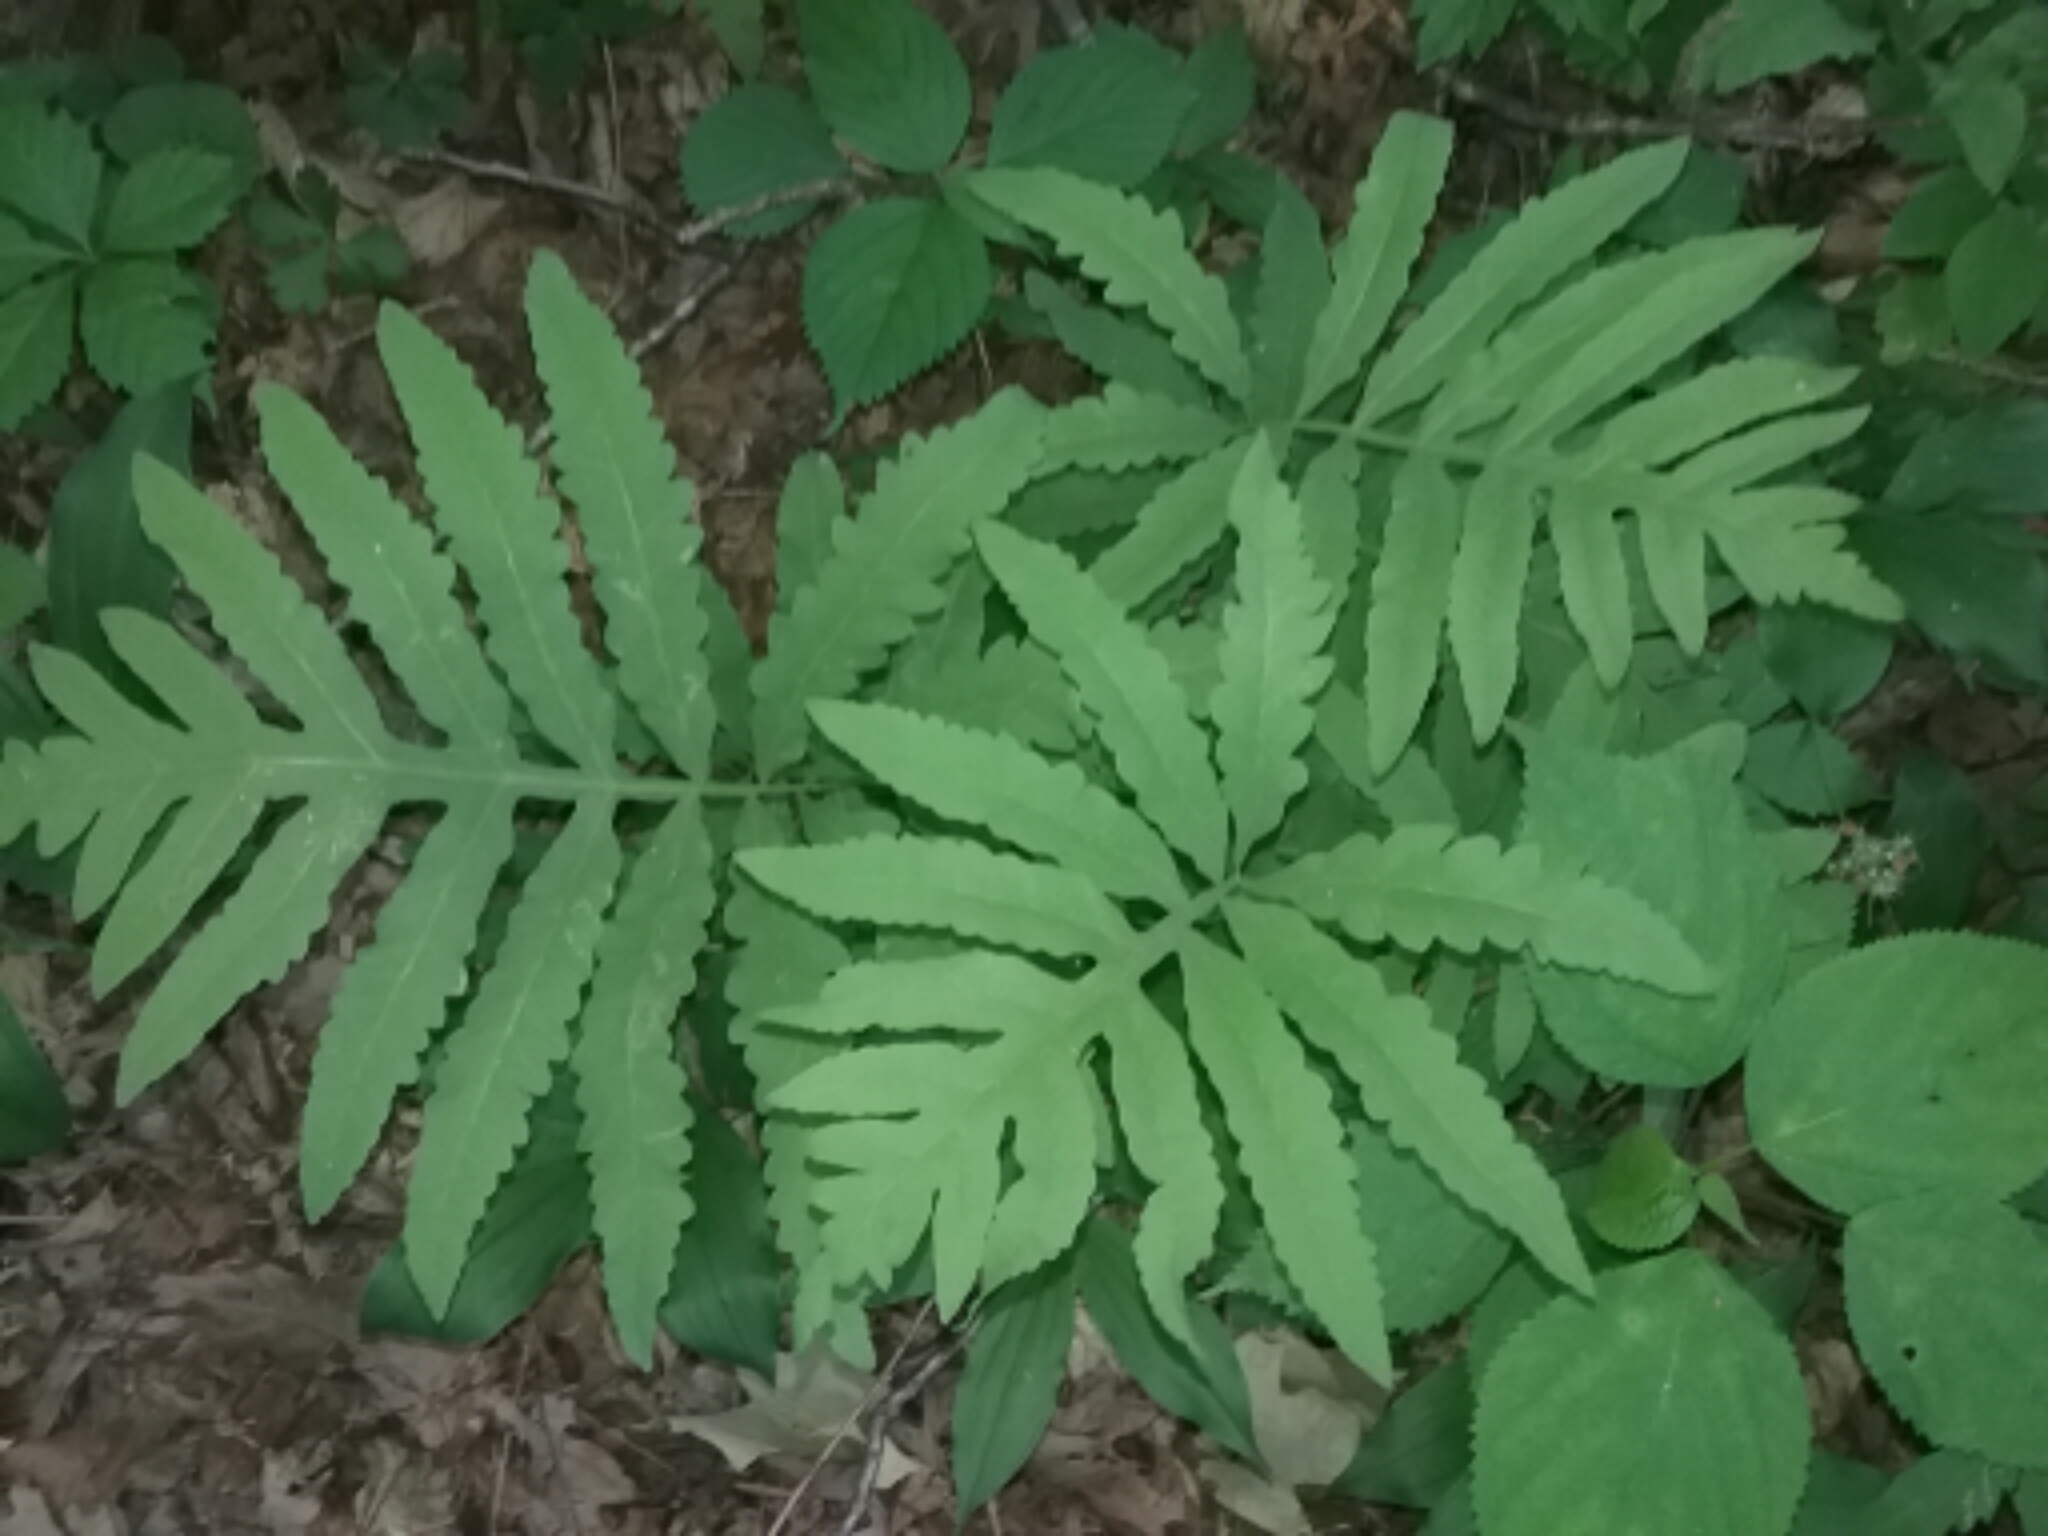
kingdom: Plantae
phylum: Tracheophyta
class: Polypodiopsida
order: Polypodiales
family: Onocleaceae
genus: Onoclea
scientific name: Onoclea sensibilis
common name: Sensitive fern
